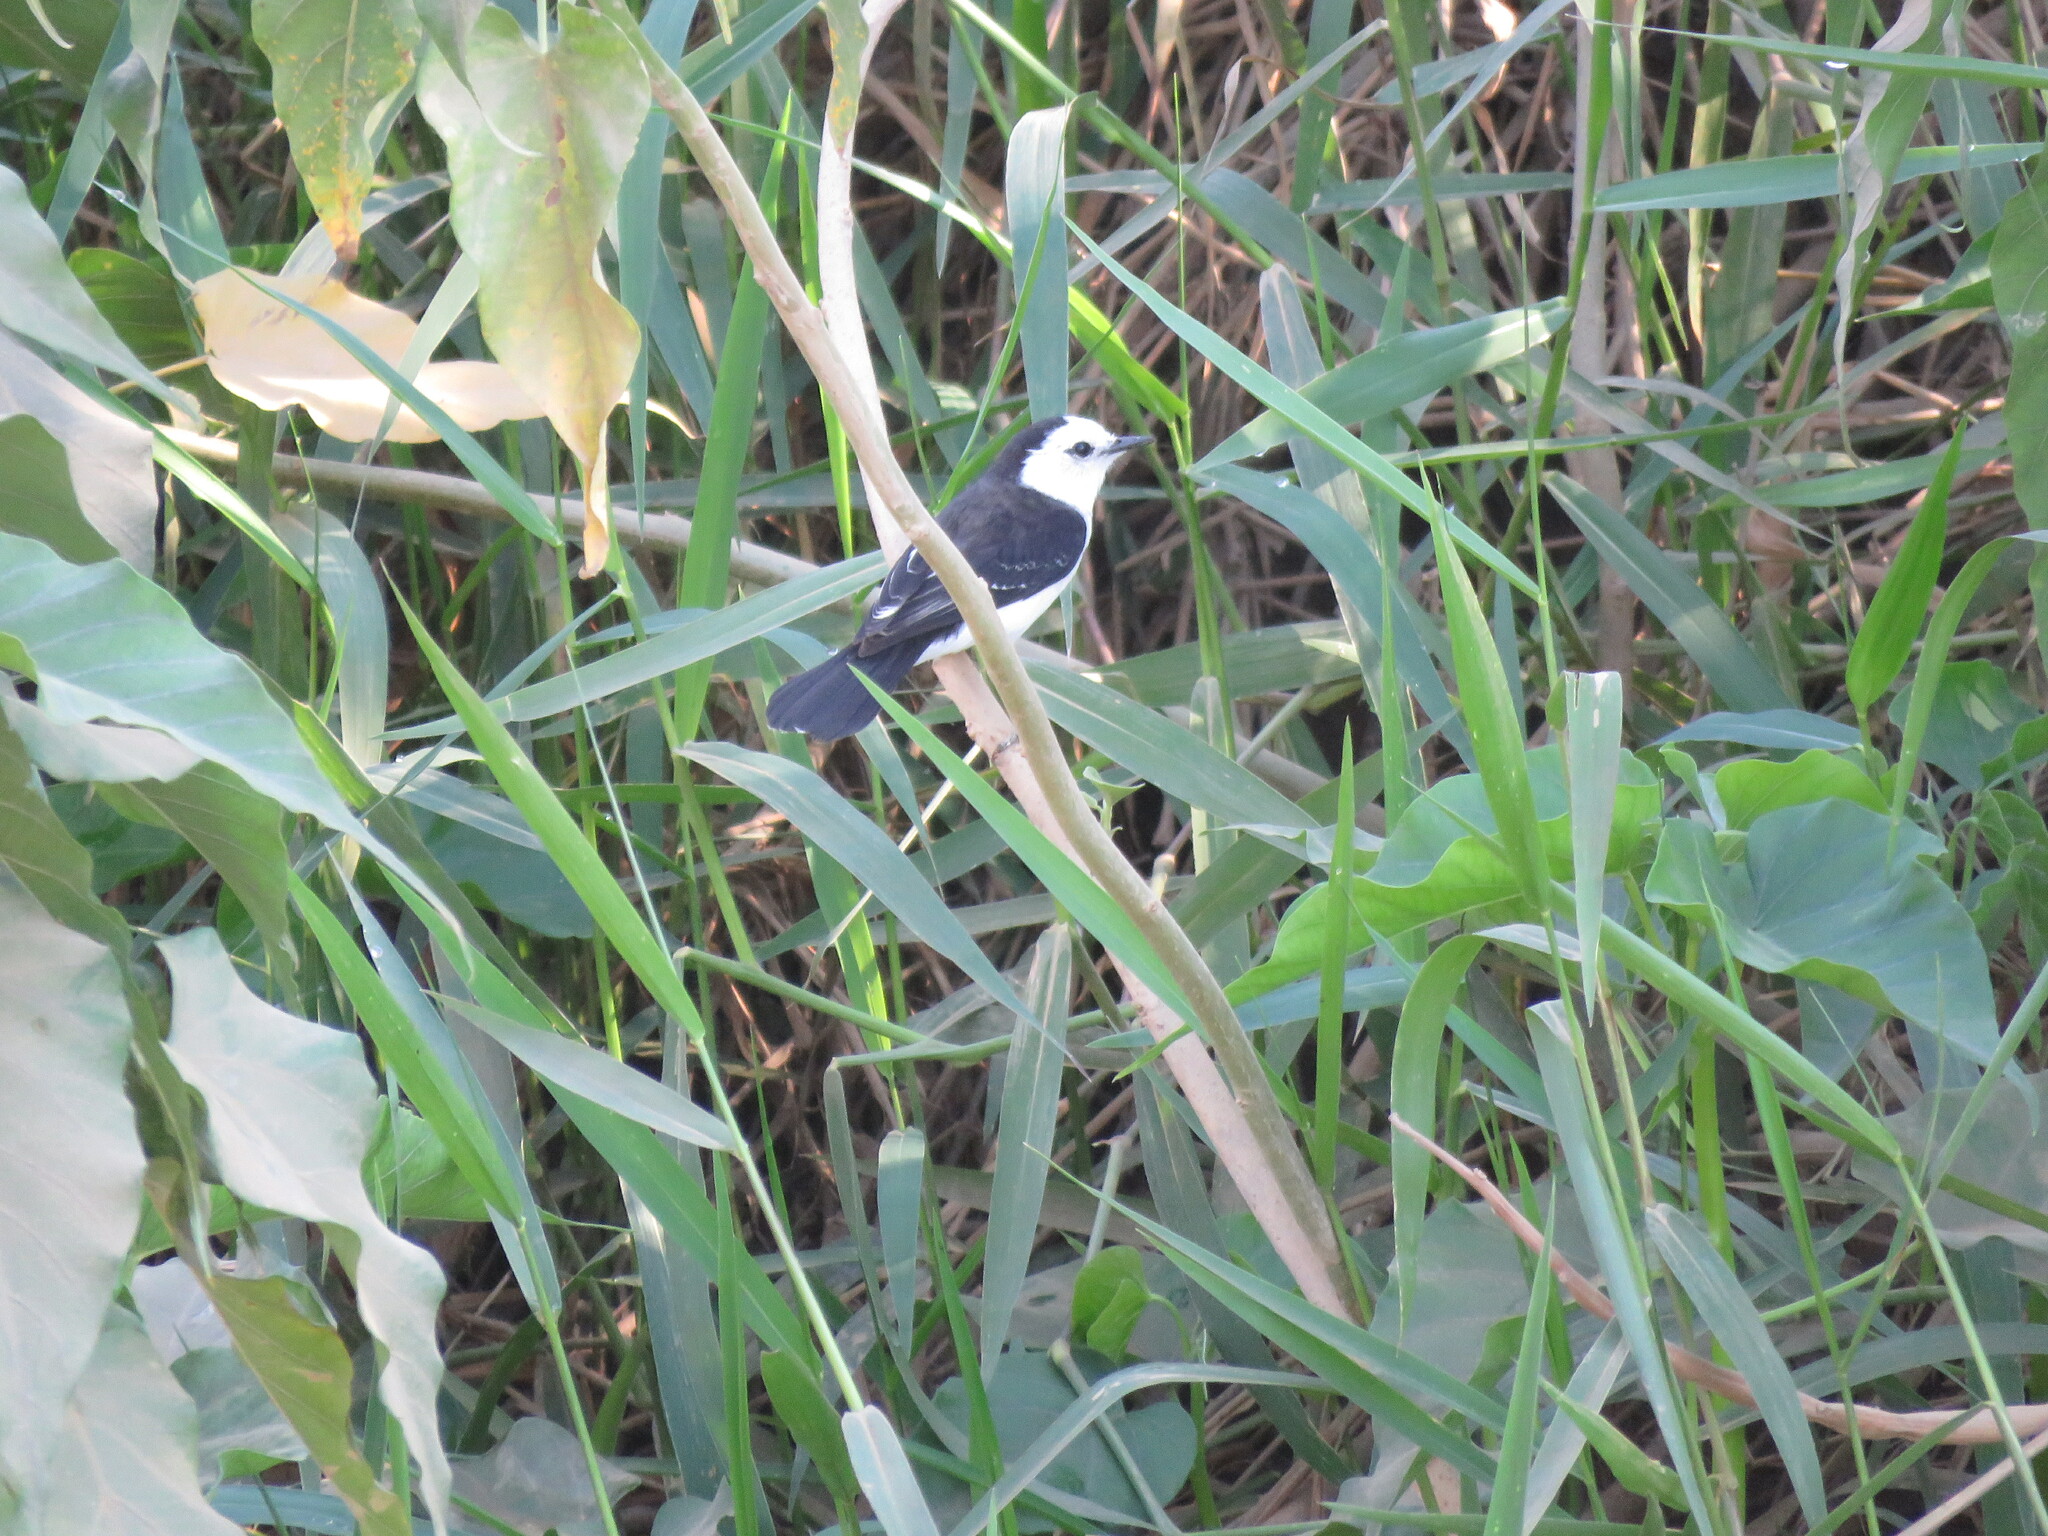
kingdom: Animalia
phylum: Chordata
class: Aves
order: Passeriformes
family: Tyrannidae
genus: Fluvicola
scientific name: Fluvicola pica
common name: Pied water-tyrant
